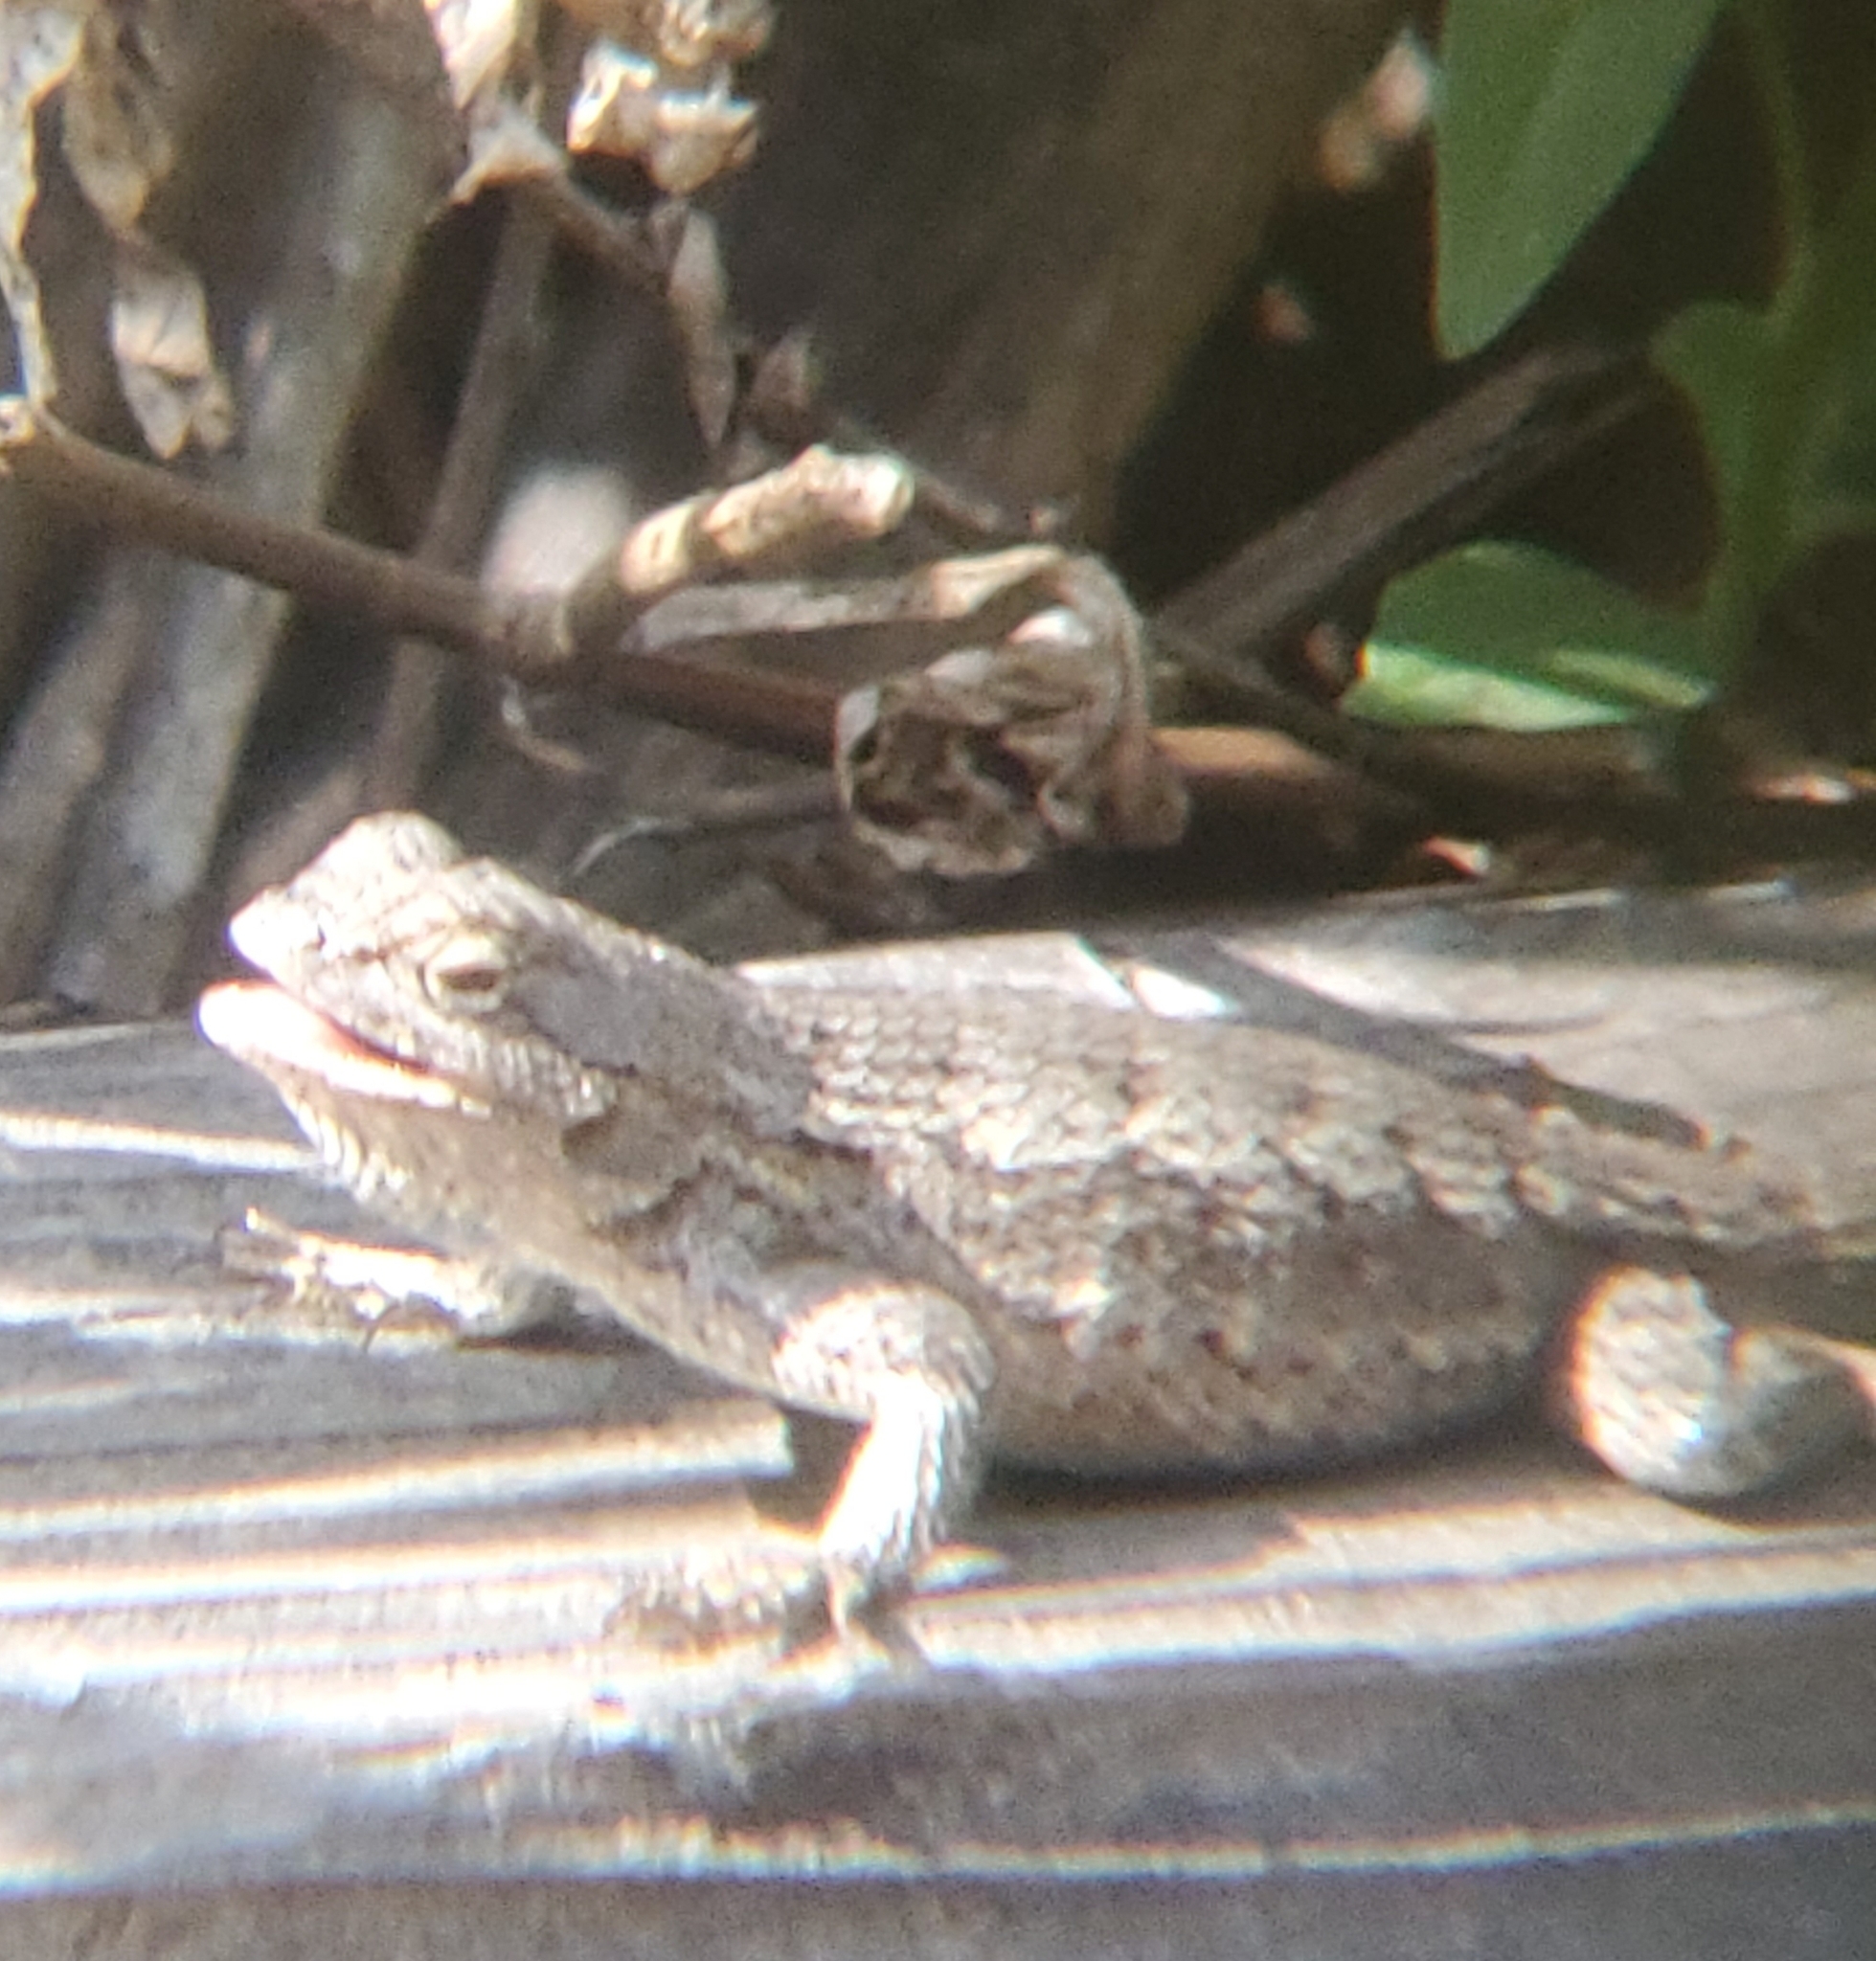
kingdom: Animalia
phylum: Chordata
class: Squamata
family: Phrynosomatidae
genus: Sceloporus
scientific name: Sceloporus occidentalis
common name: Western fence lizard
